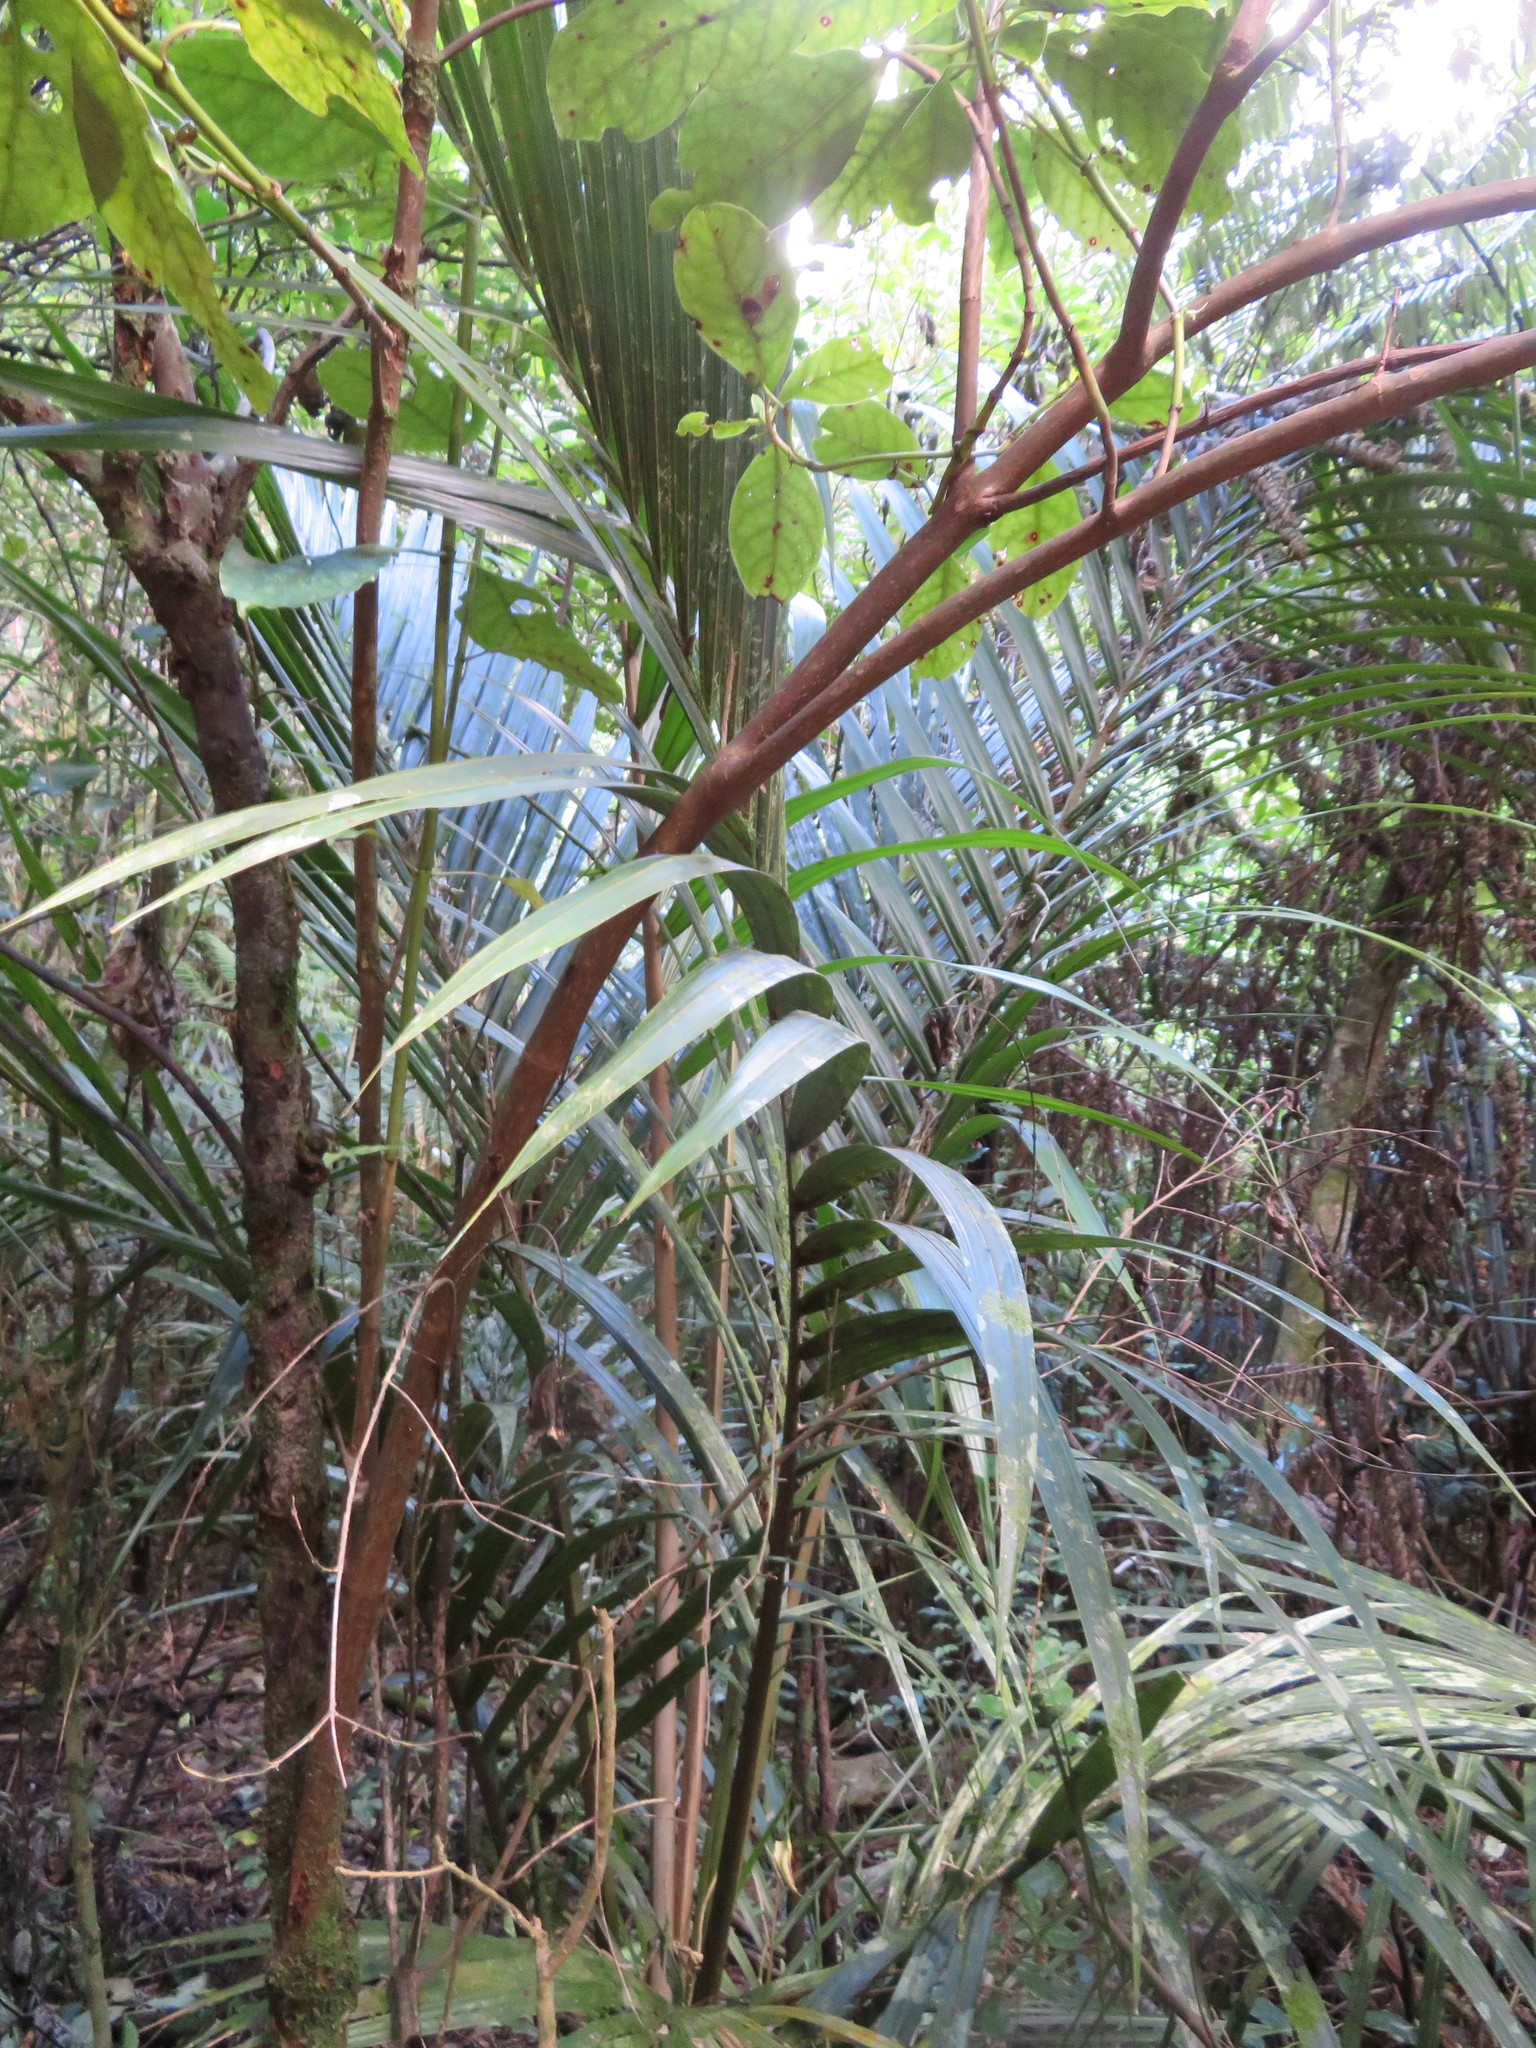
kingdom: Plantae
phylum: Tracheophyta
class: Magnoliopsida
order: Gentianales
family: Rubiaceae
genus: Coprosma
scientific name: Coprosma autumnalis
